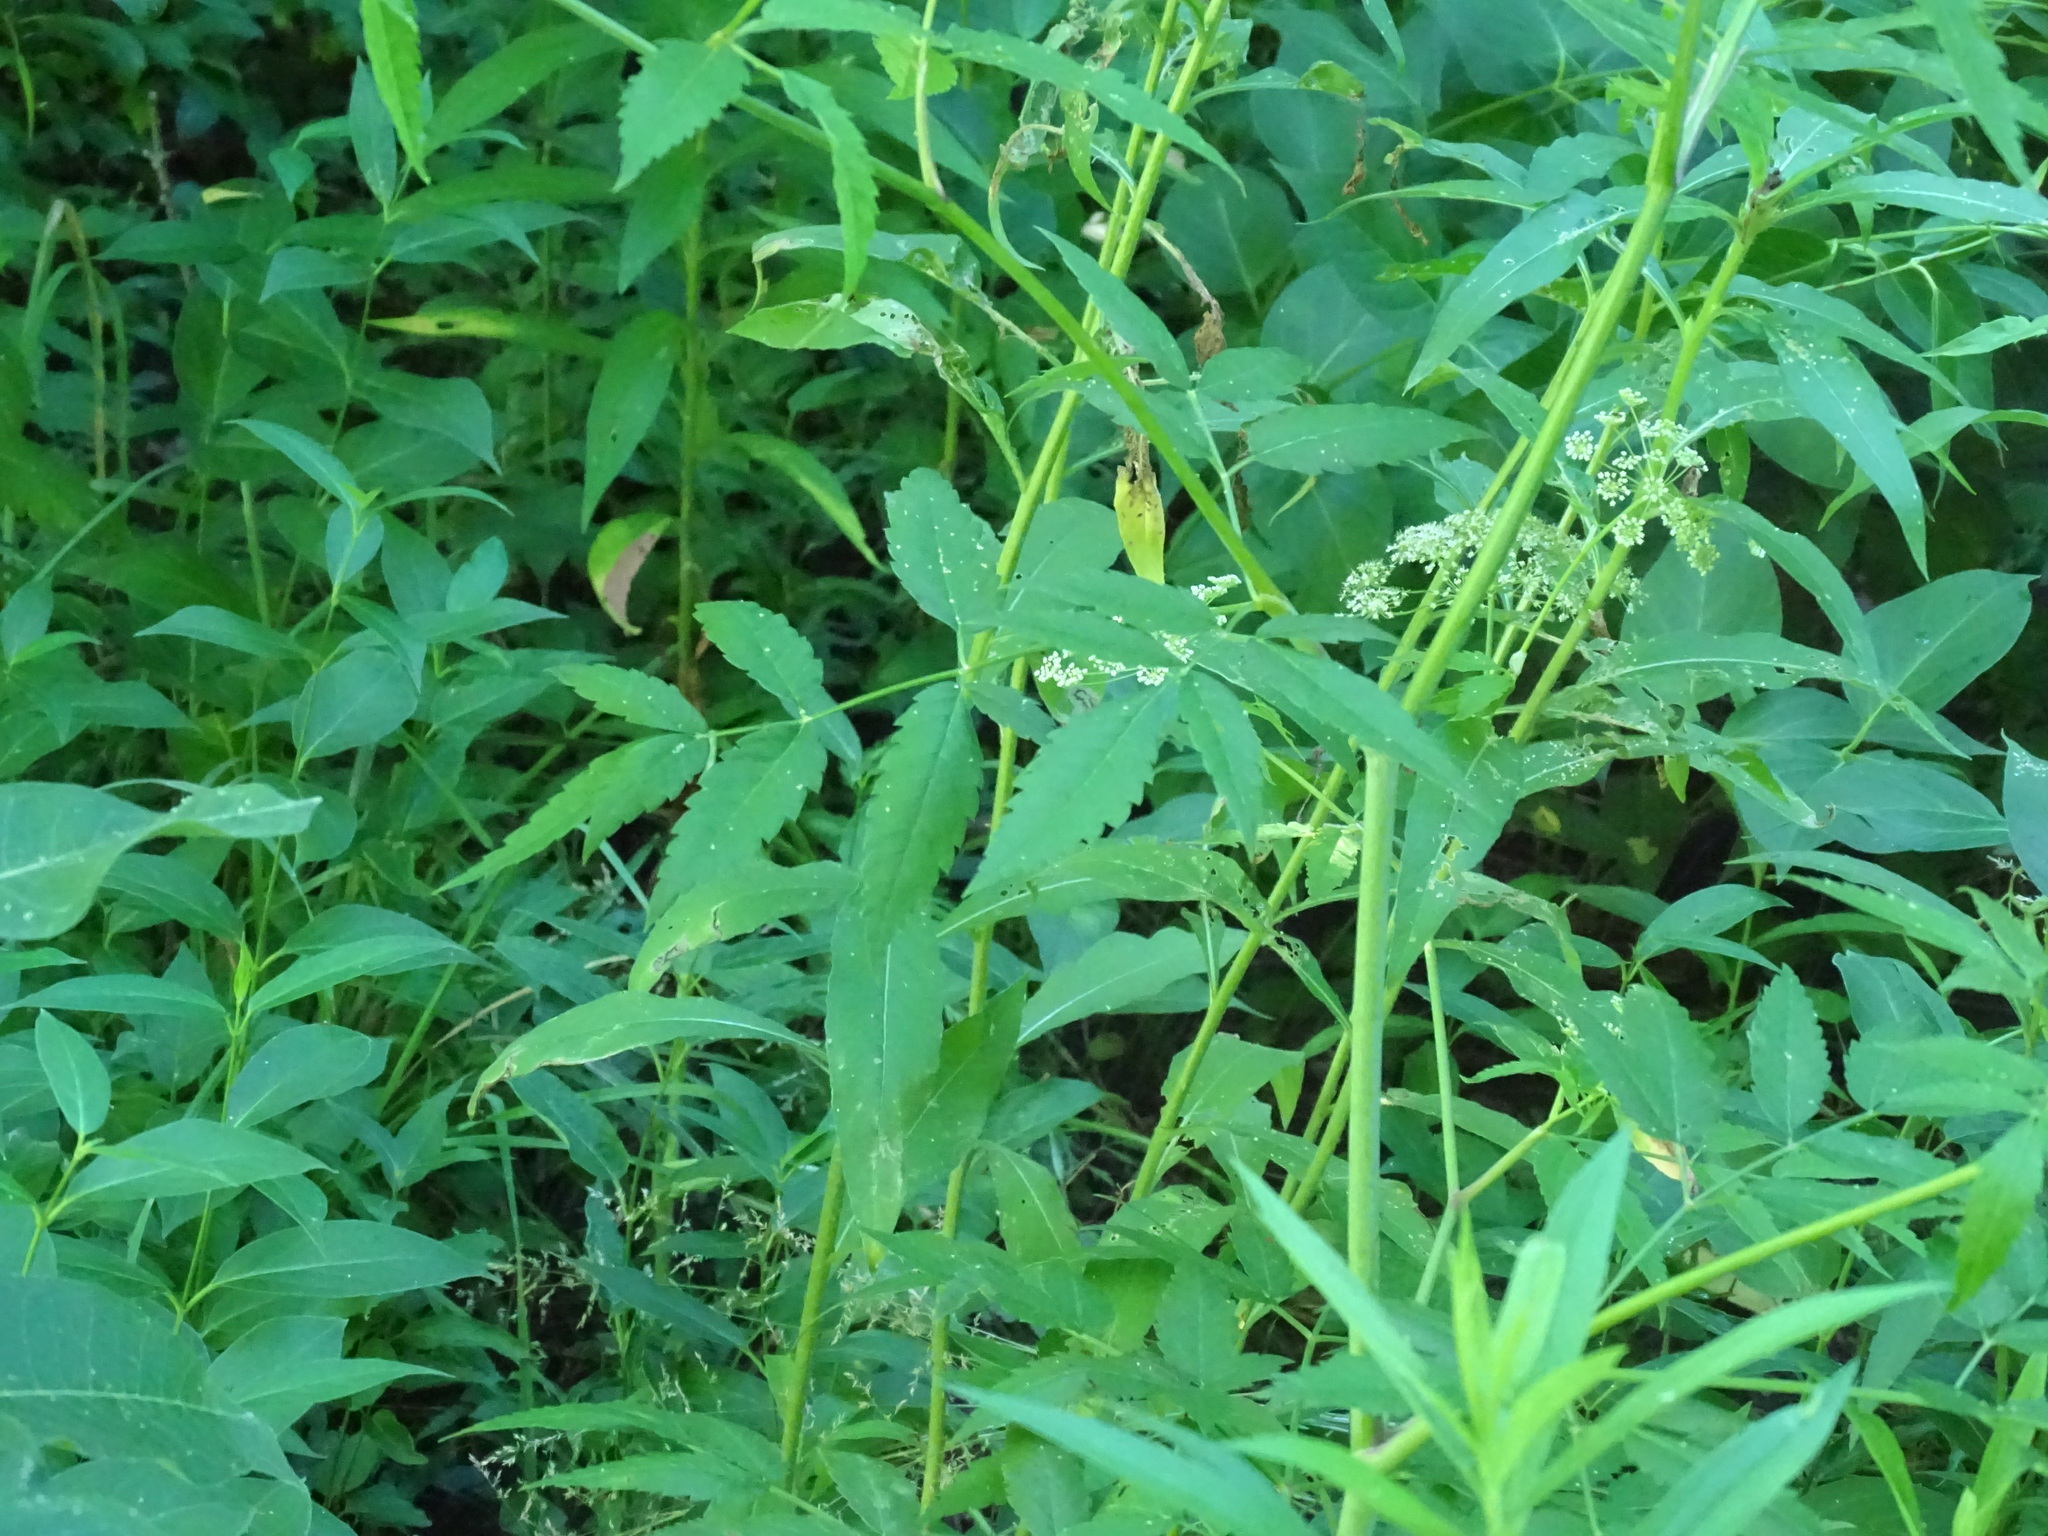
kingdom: Plantae
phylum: Tracheophyta
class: Magnoliopsida
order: Apiales
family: Apiaceae
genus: Cicuta
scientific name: Cicuta maculata
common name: Spotted cowbane
